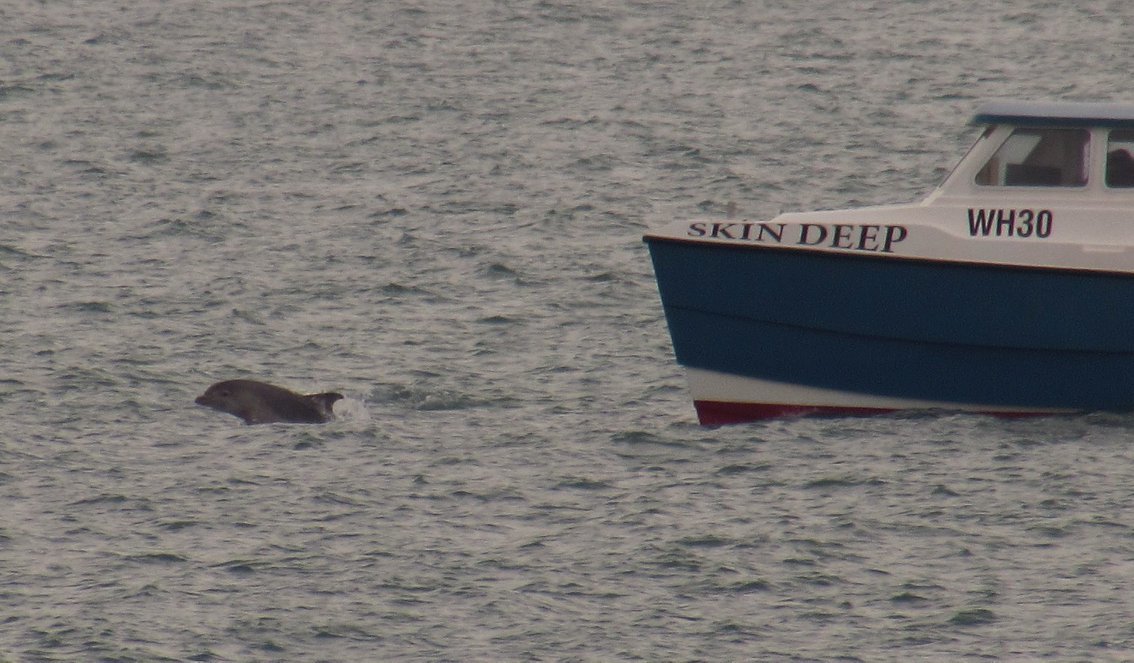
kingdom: Animalia
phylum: Chordata
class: Mammalia
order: Cetacea
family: Delphinidae
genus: Tursiops
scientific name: Tursiops truncatus
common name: Bottlenose dolphin
